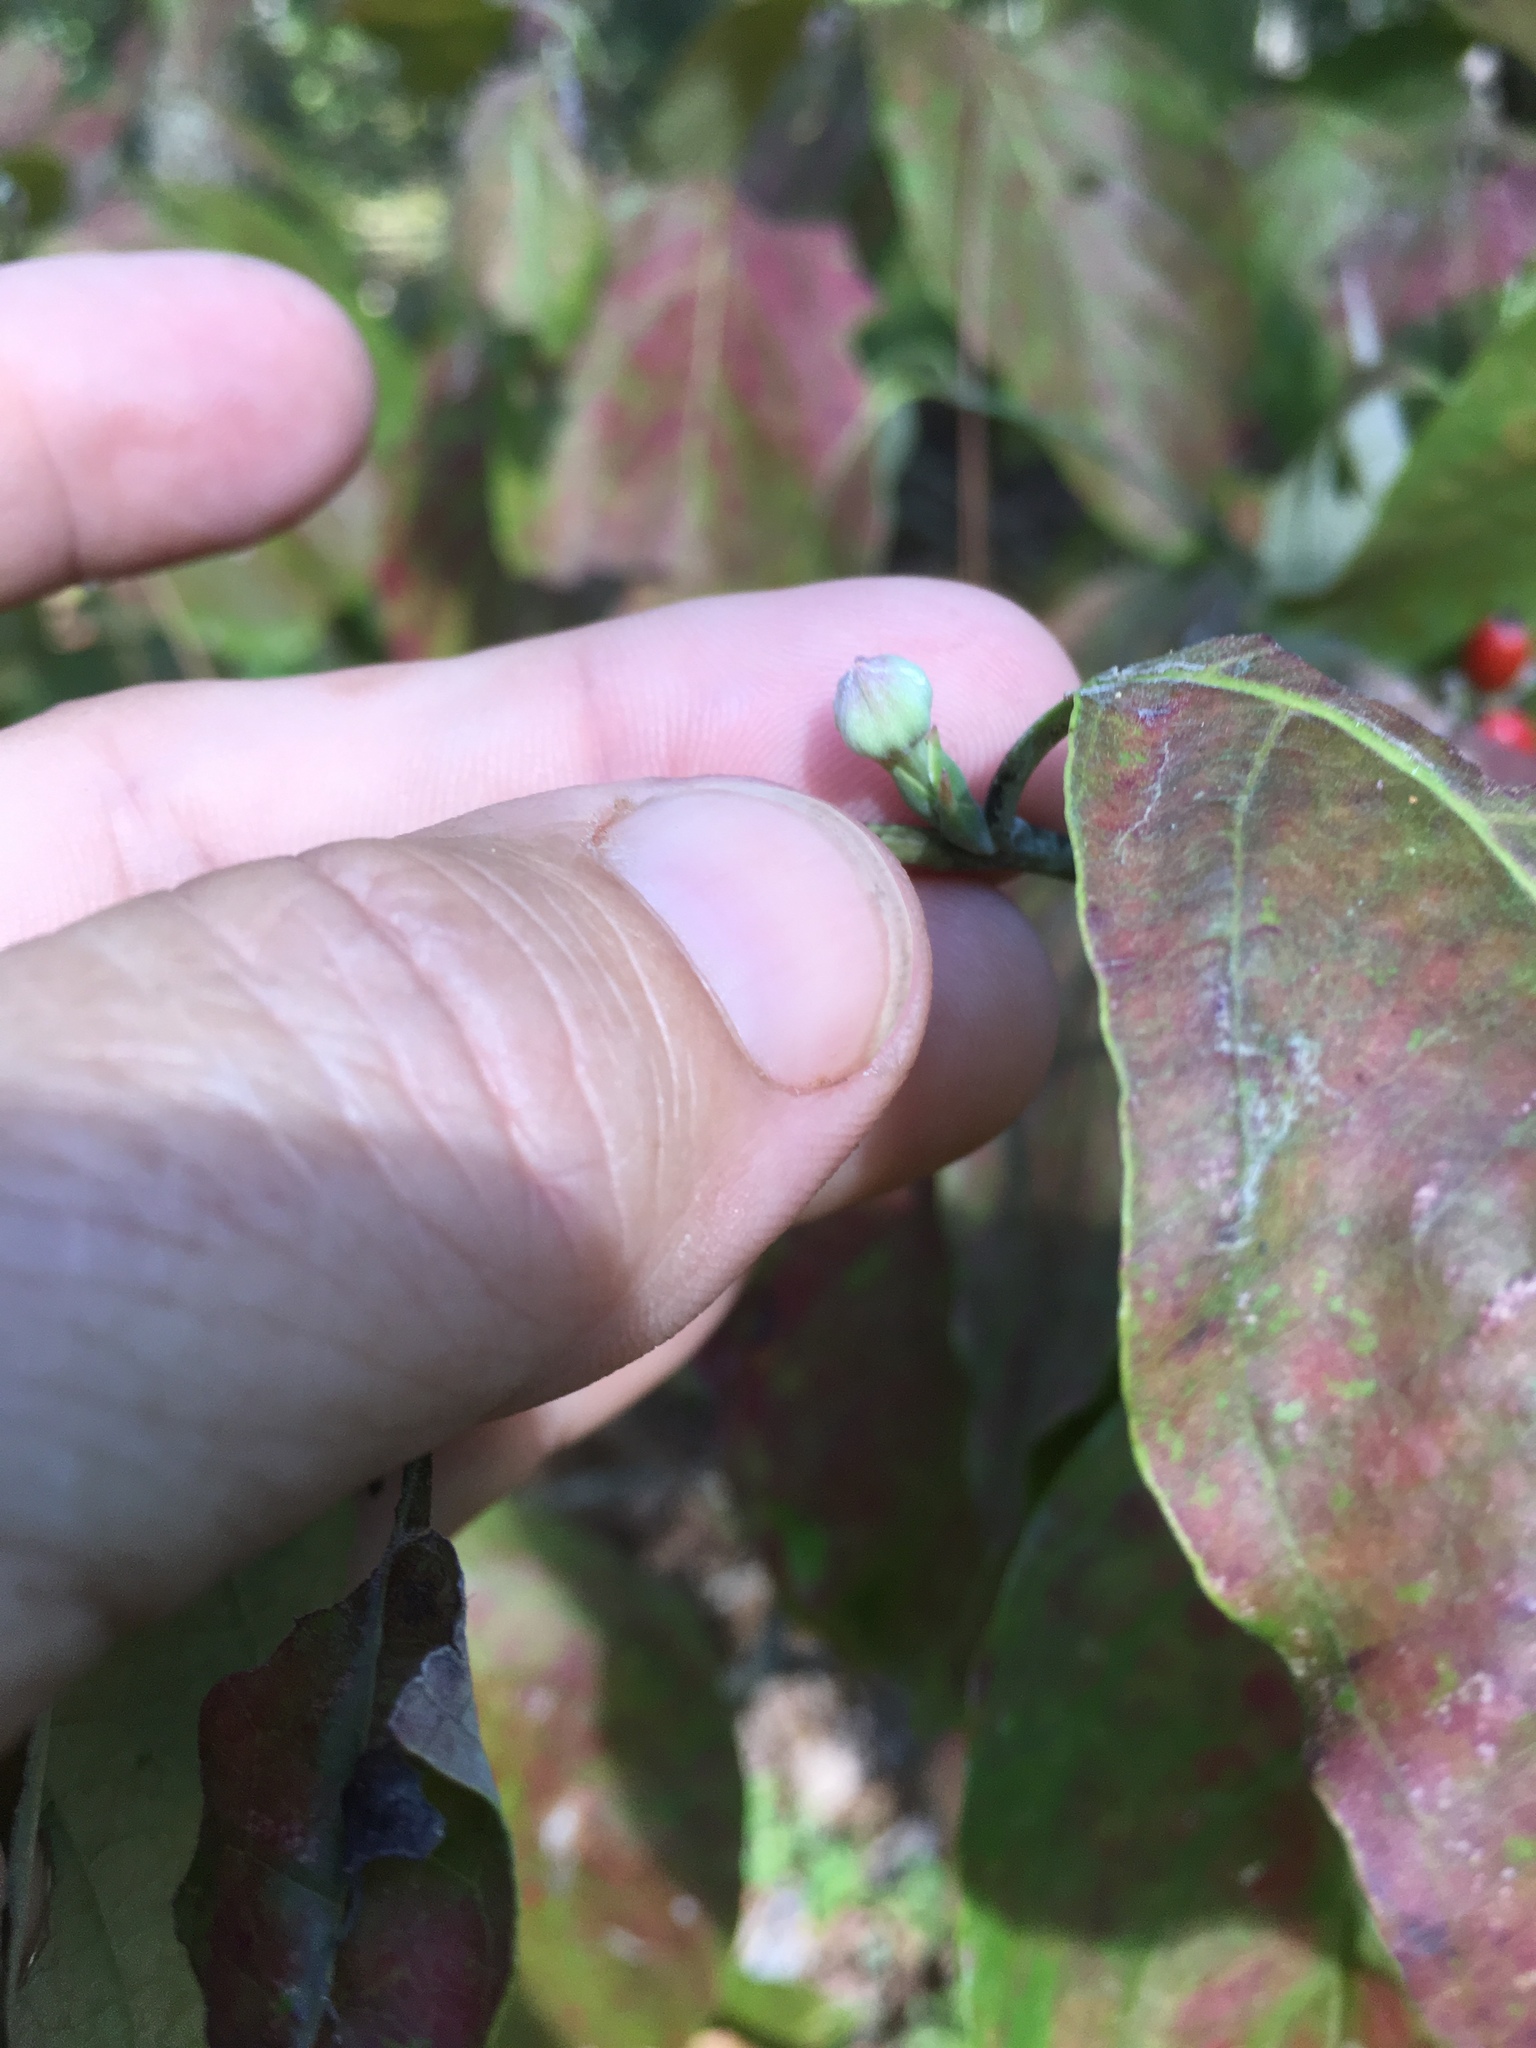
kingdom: Plantae
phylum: Tracheophyta
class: Magnoliopsida
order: Cornales
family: Cornaceae
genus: Cornus
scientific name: Cornus florida
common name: Flowering dogwood
